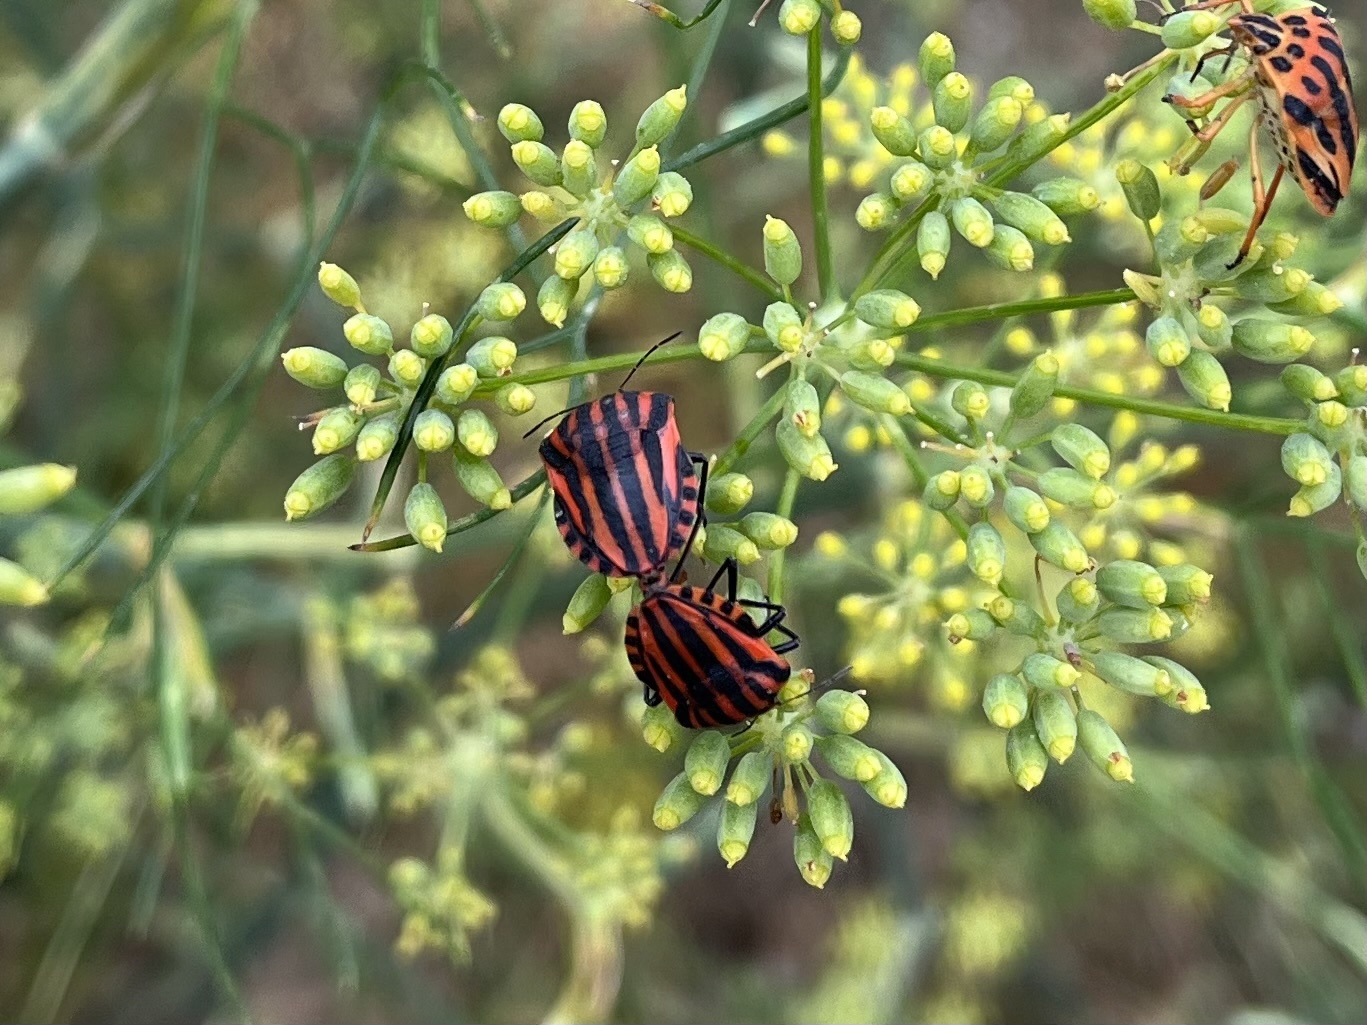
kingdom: Animalia
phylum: Arthropoda
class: Insecta
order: Hemiptera
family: Pentatomidae
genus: Graphosoma
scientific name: Graphosoma italicum
